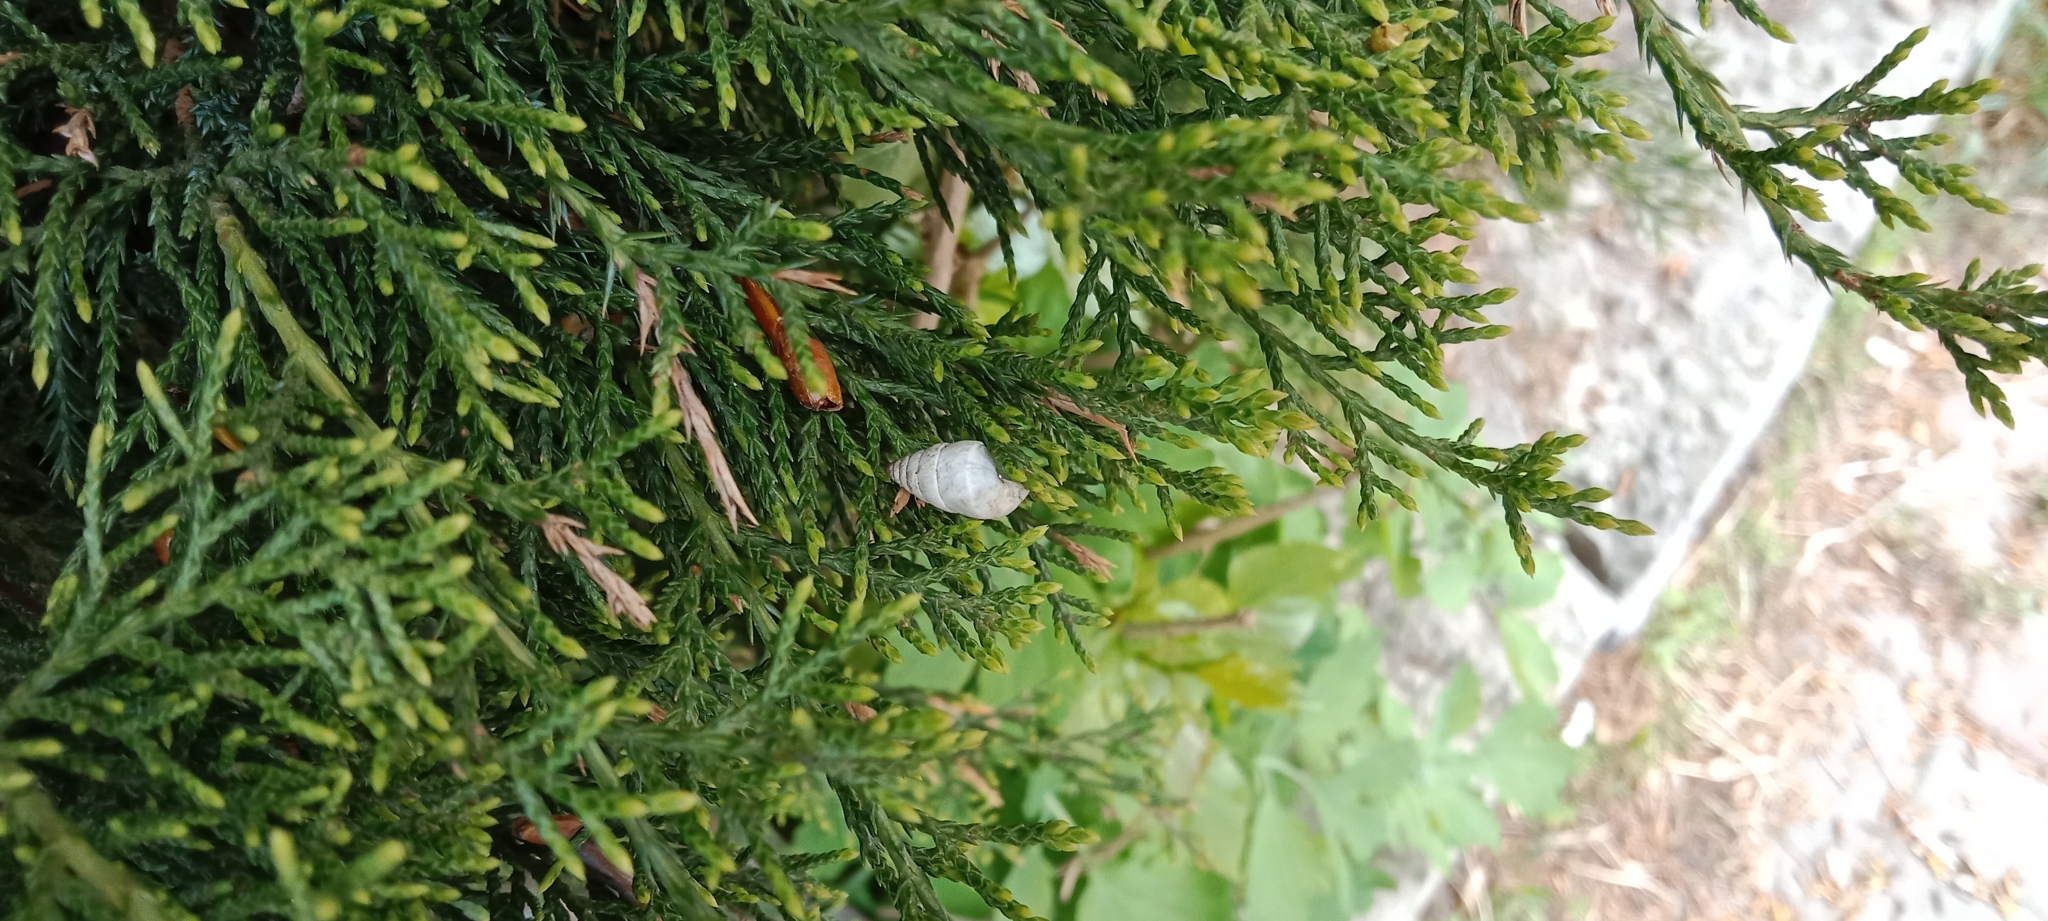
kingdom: Animalia
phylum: Mollusca
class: Gastropoda
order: Stylommatophora
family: Enidae
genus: Brephulopsis
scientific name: Brephulopsis cylindrica
